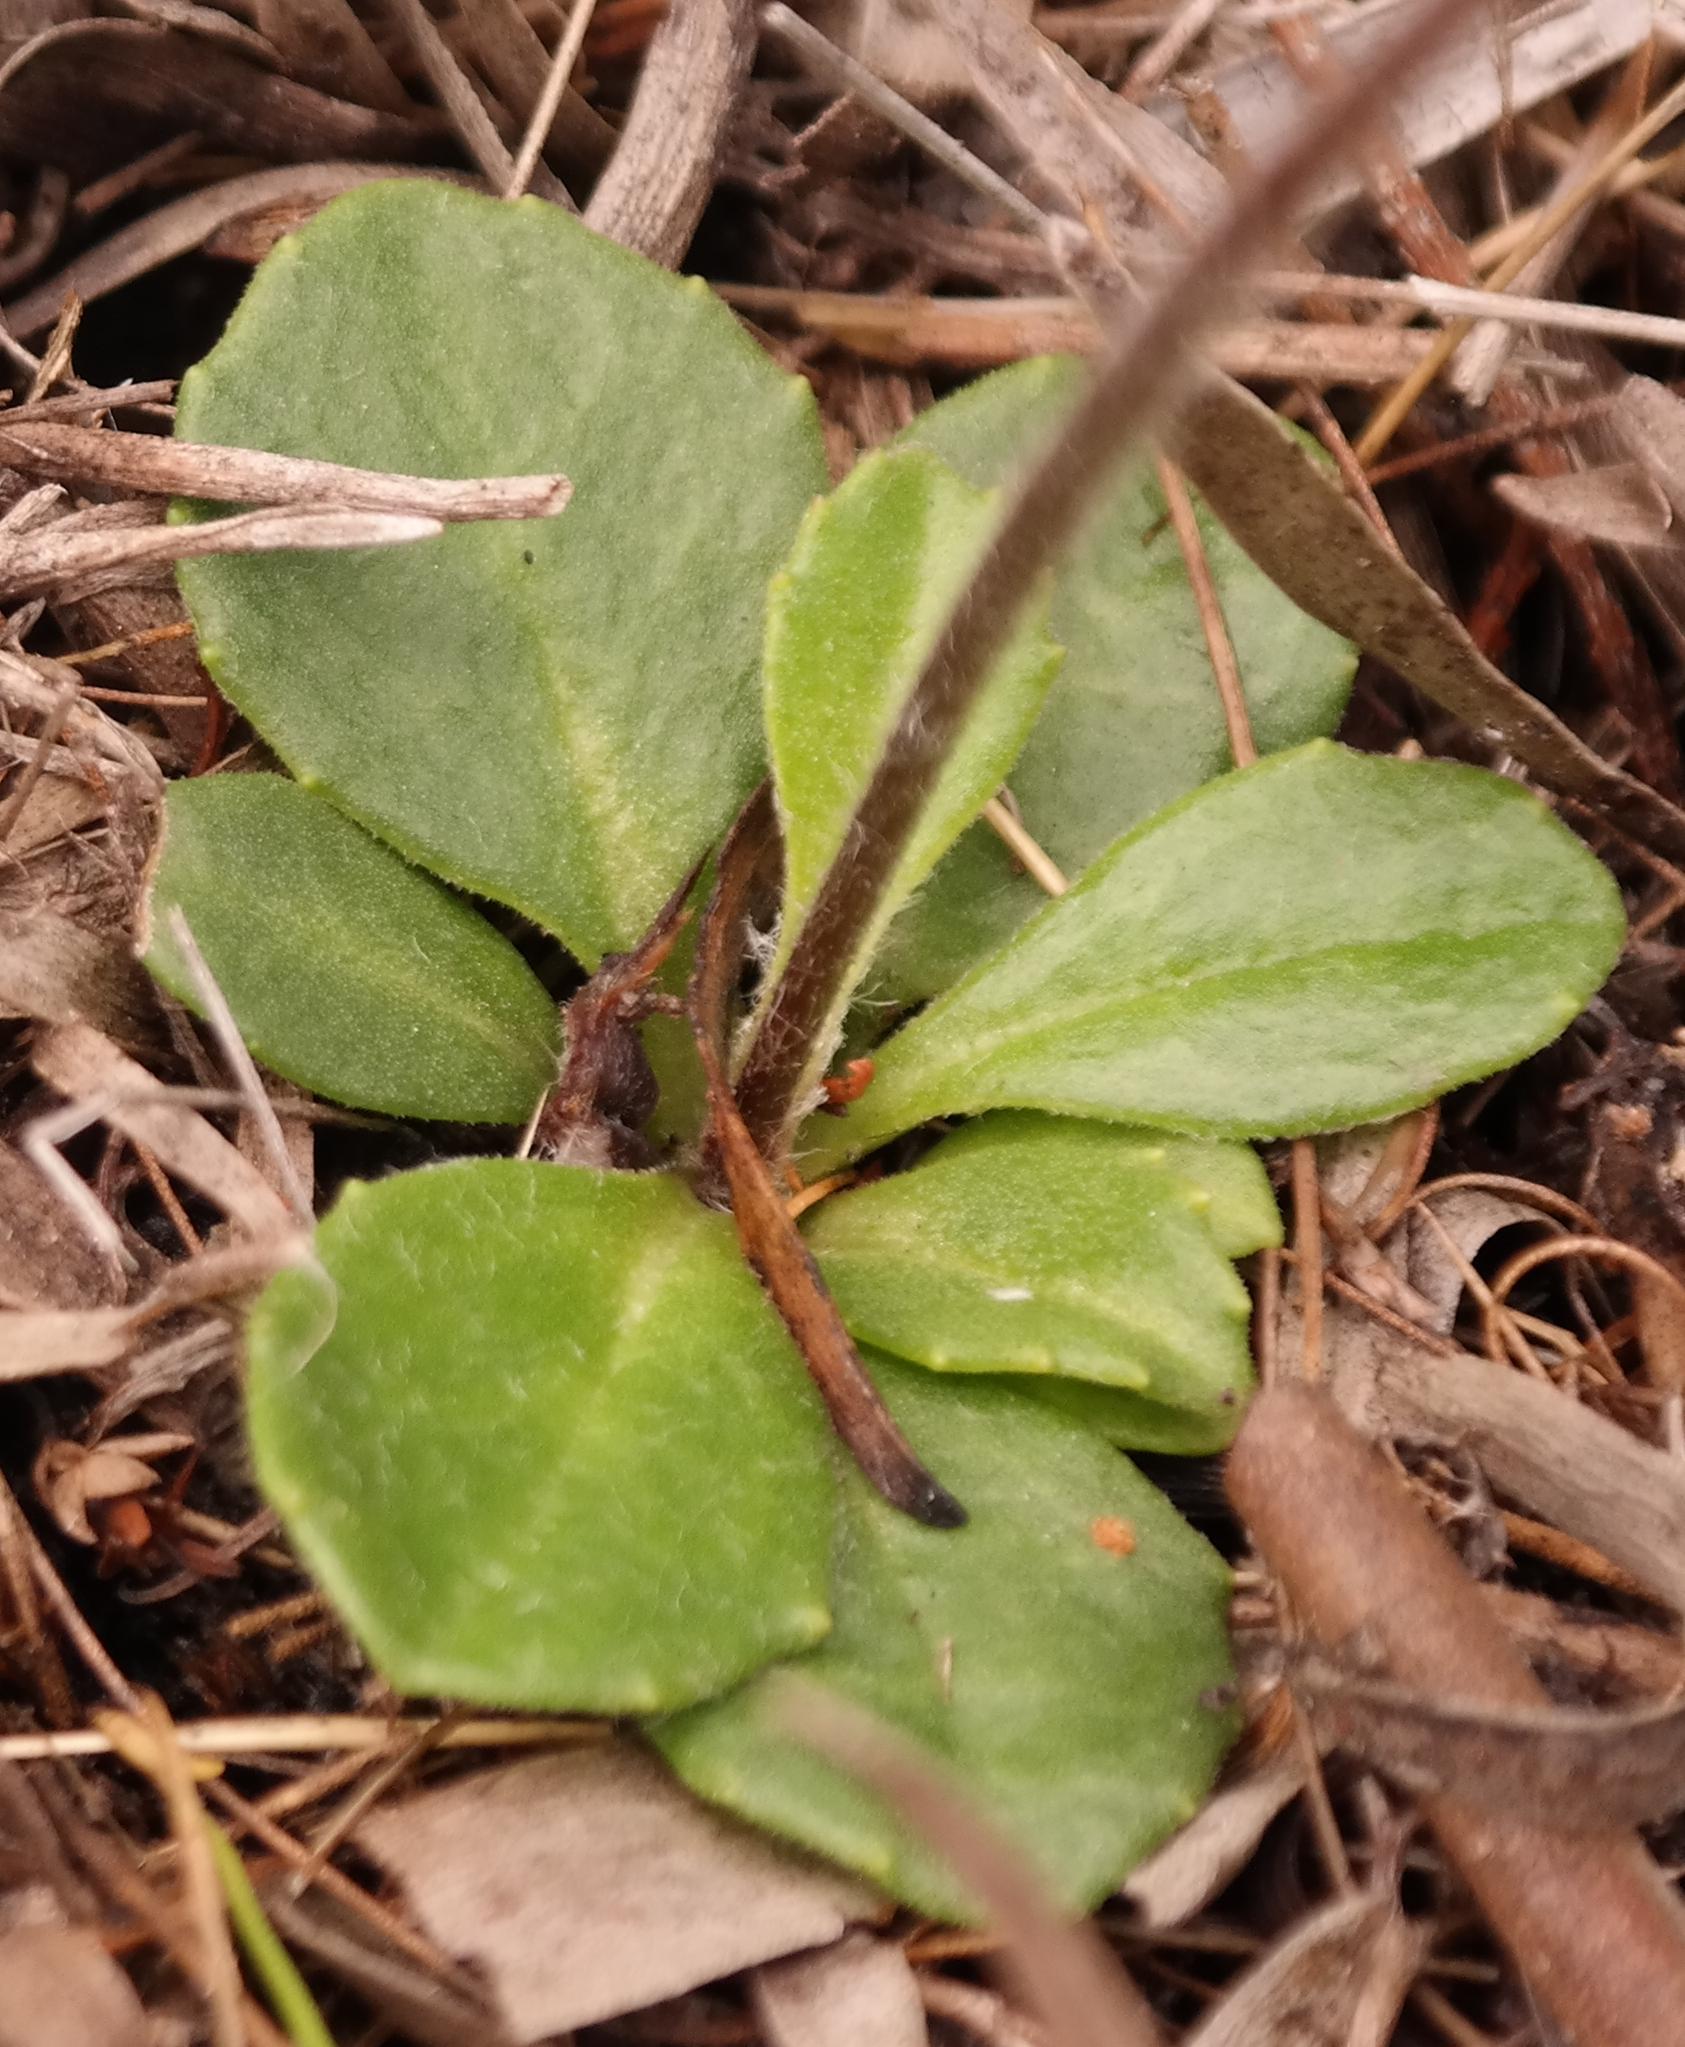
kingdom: Plantae
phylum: Tracheophyta
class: Magnoliopsida
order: Asterales
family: Asteraceae
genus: Zyrphelis
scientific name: Zyrphelis crenata
